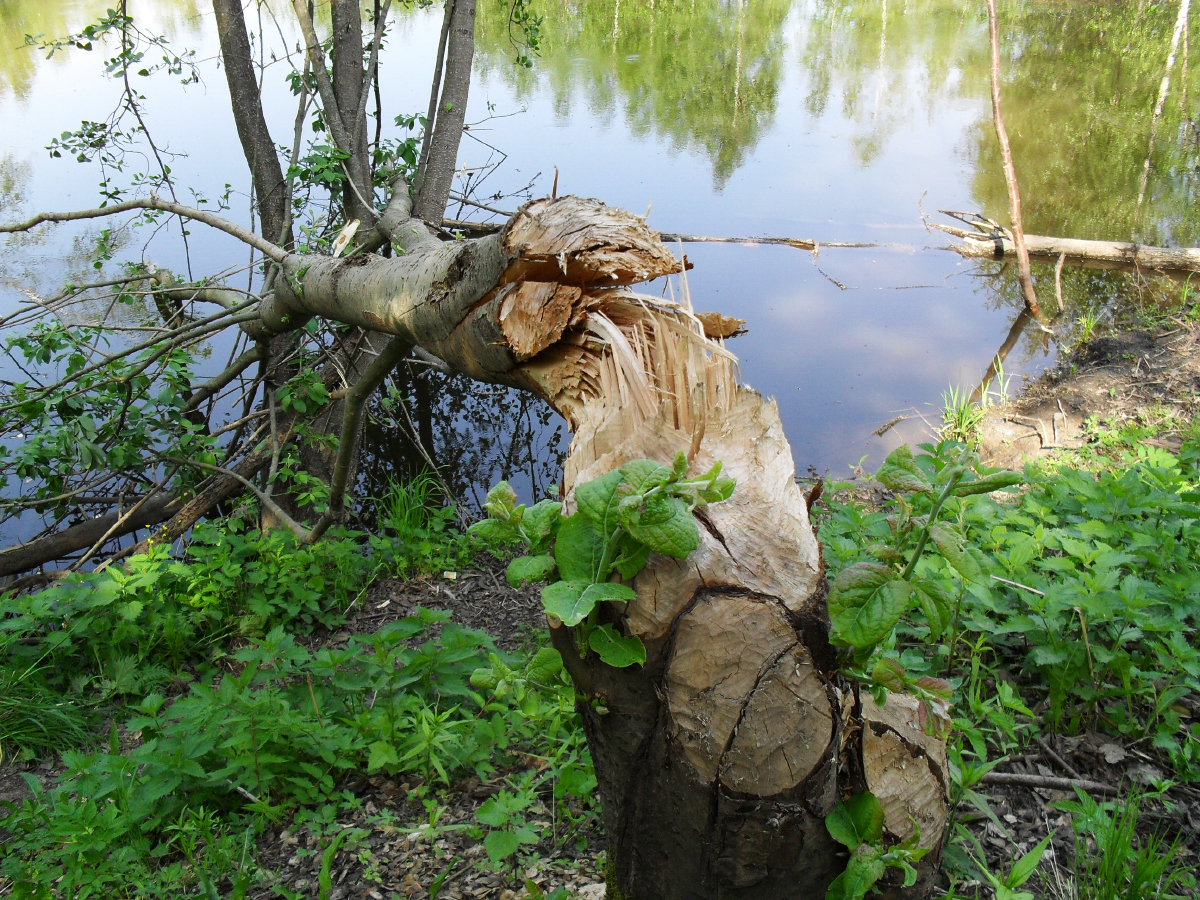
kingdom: Animalia
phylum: Chordata
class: Mammalia
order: Rodentia
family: Castoridae
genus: Castor
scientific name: Castor fiber
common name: Eurasian beaver
